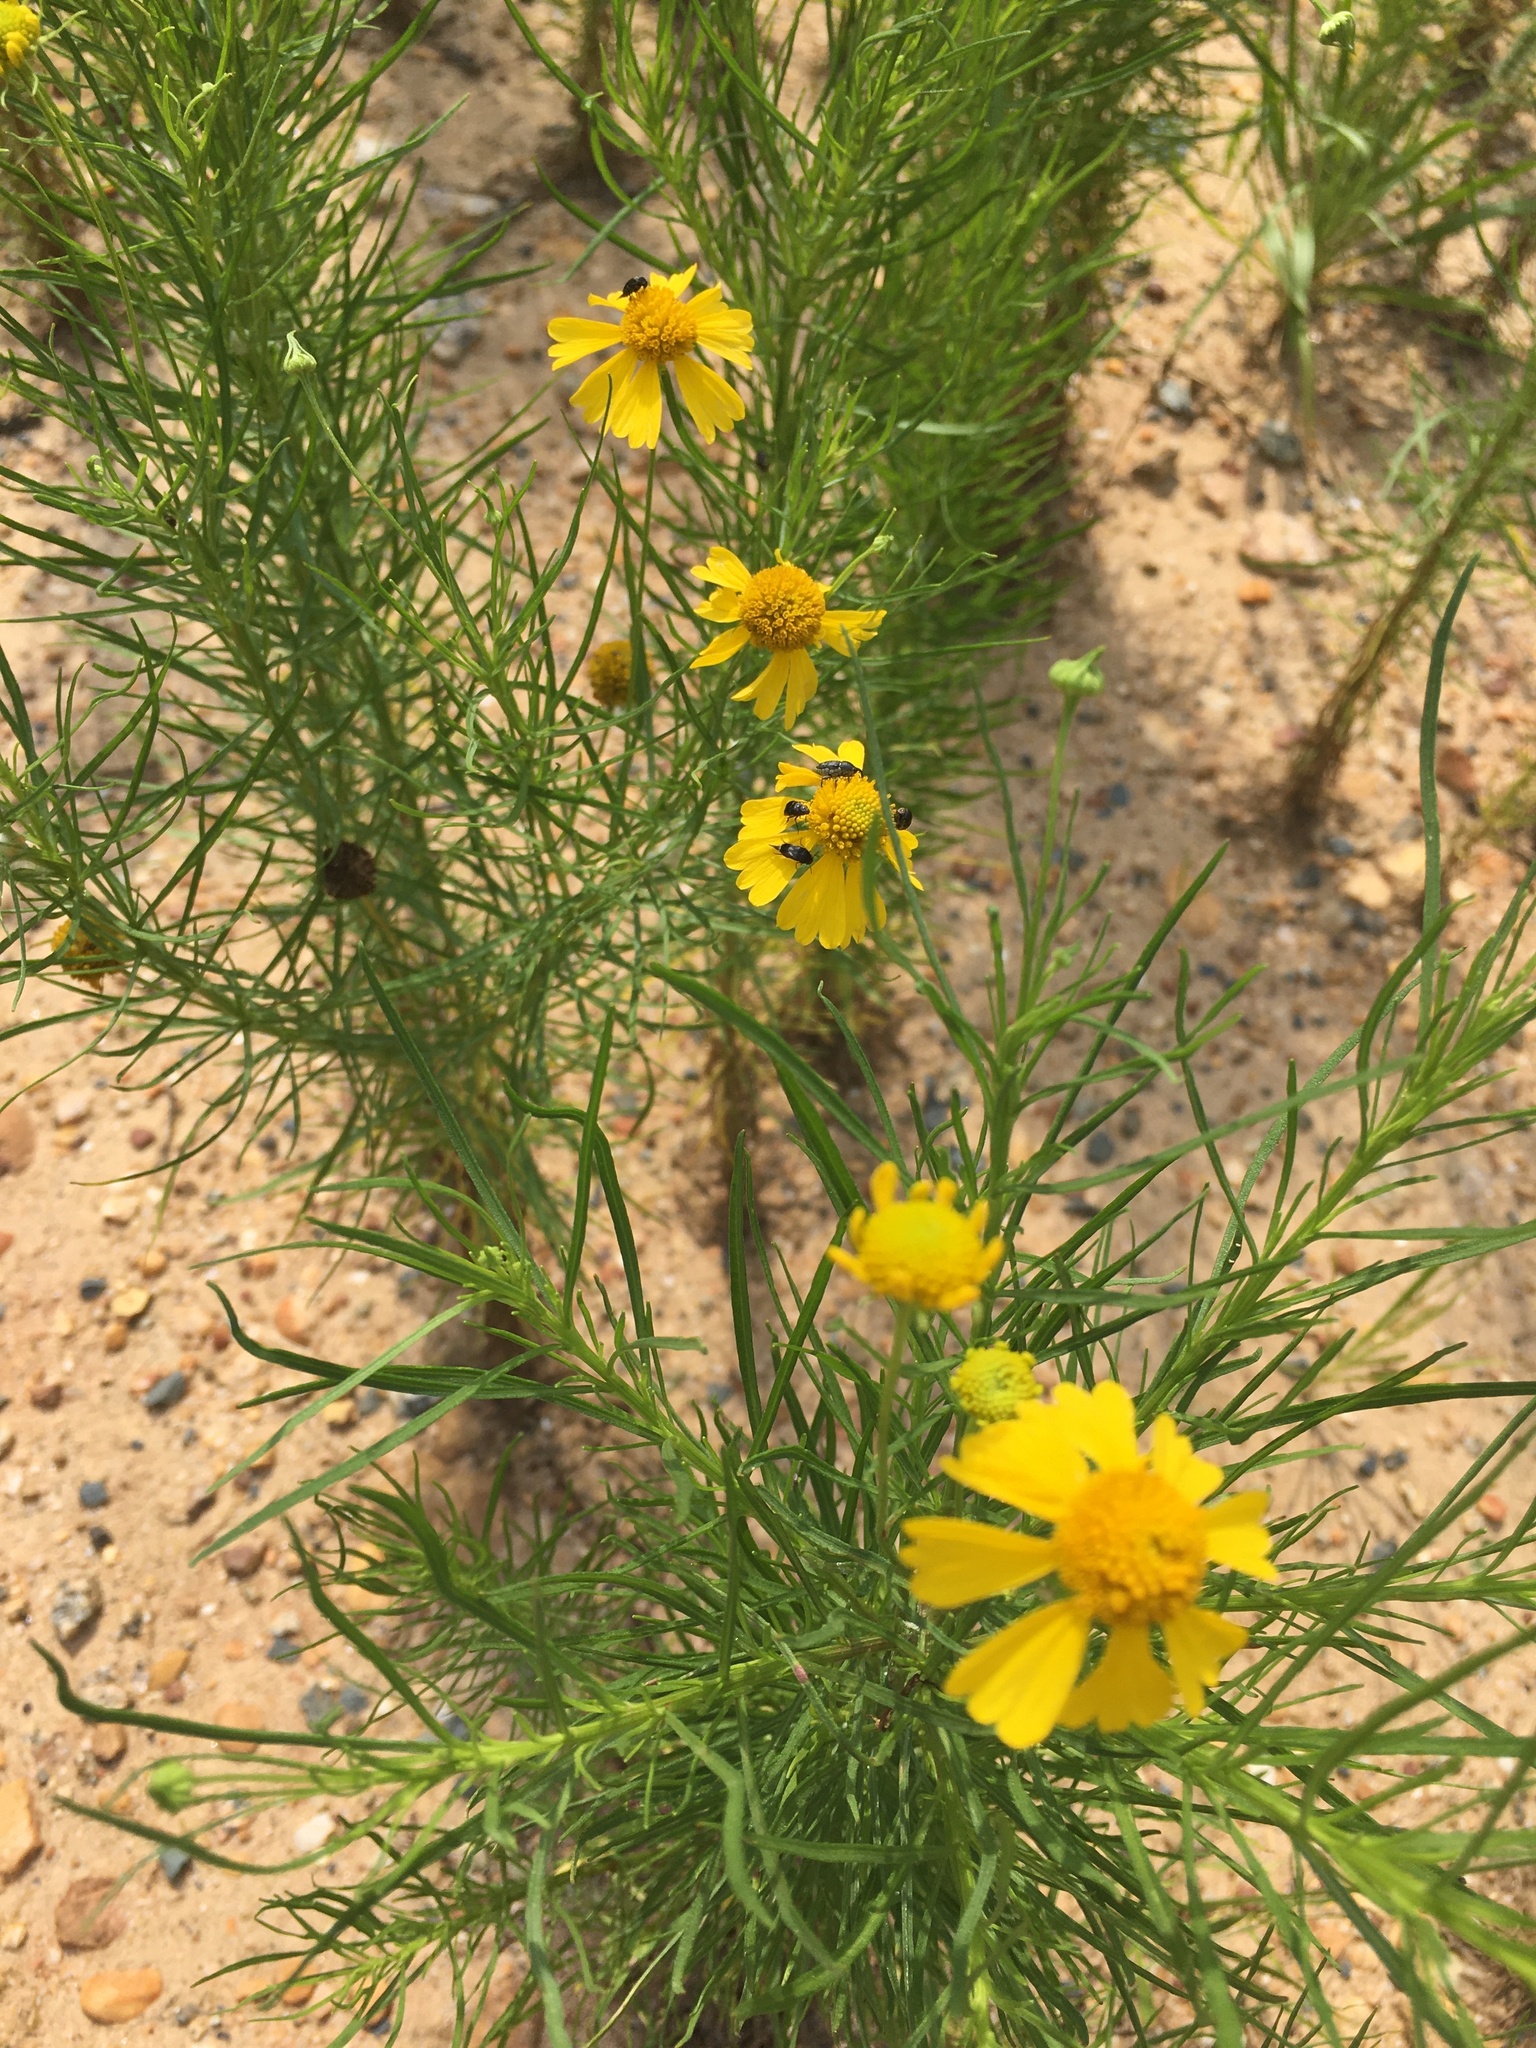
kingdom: Plantae
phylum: Tracheophyta
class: Magnoliopsida
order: Asterales
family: Asteraceae
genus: Helenium
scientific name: Helenium amarum
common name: Bitter sneezeweed
